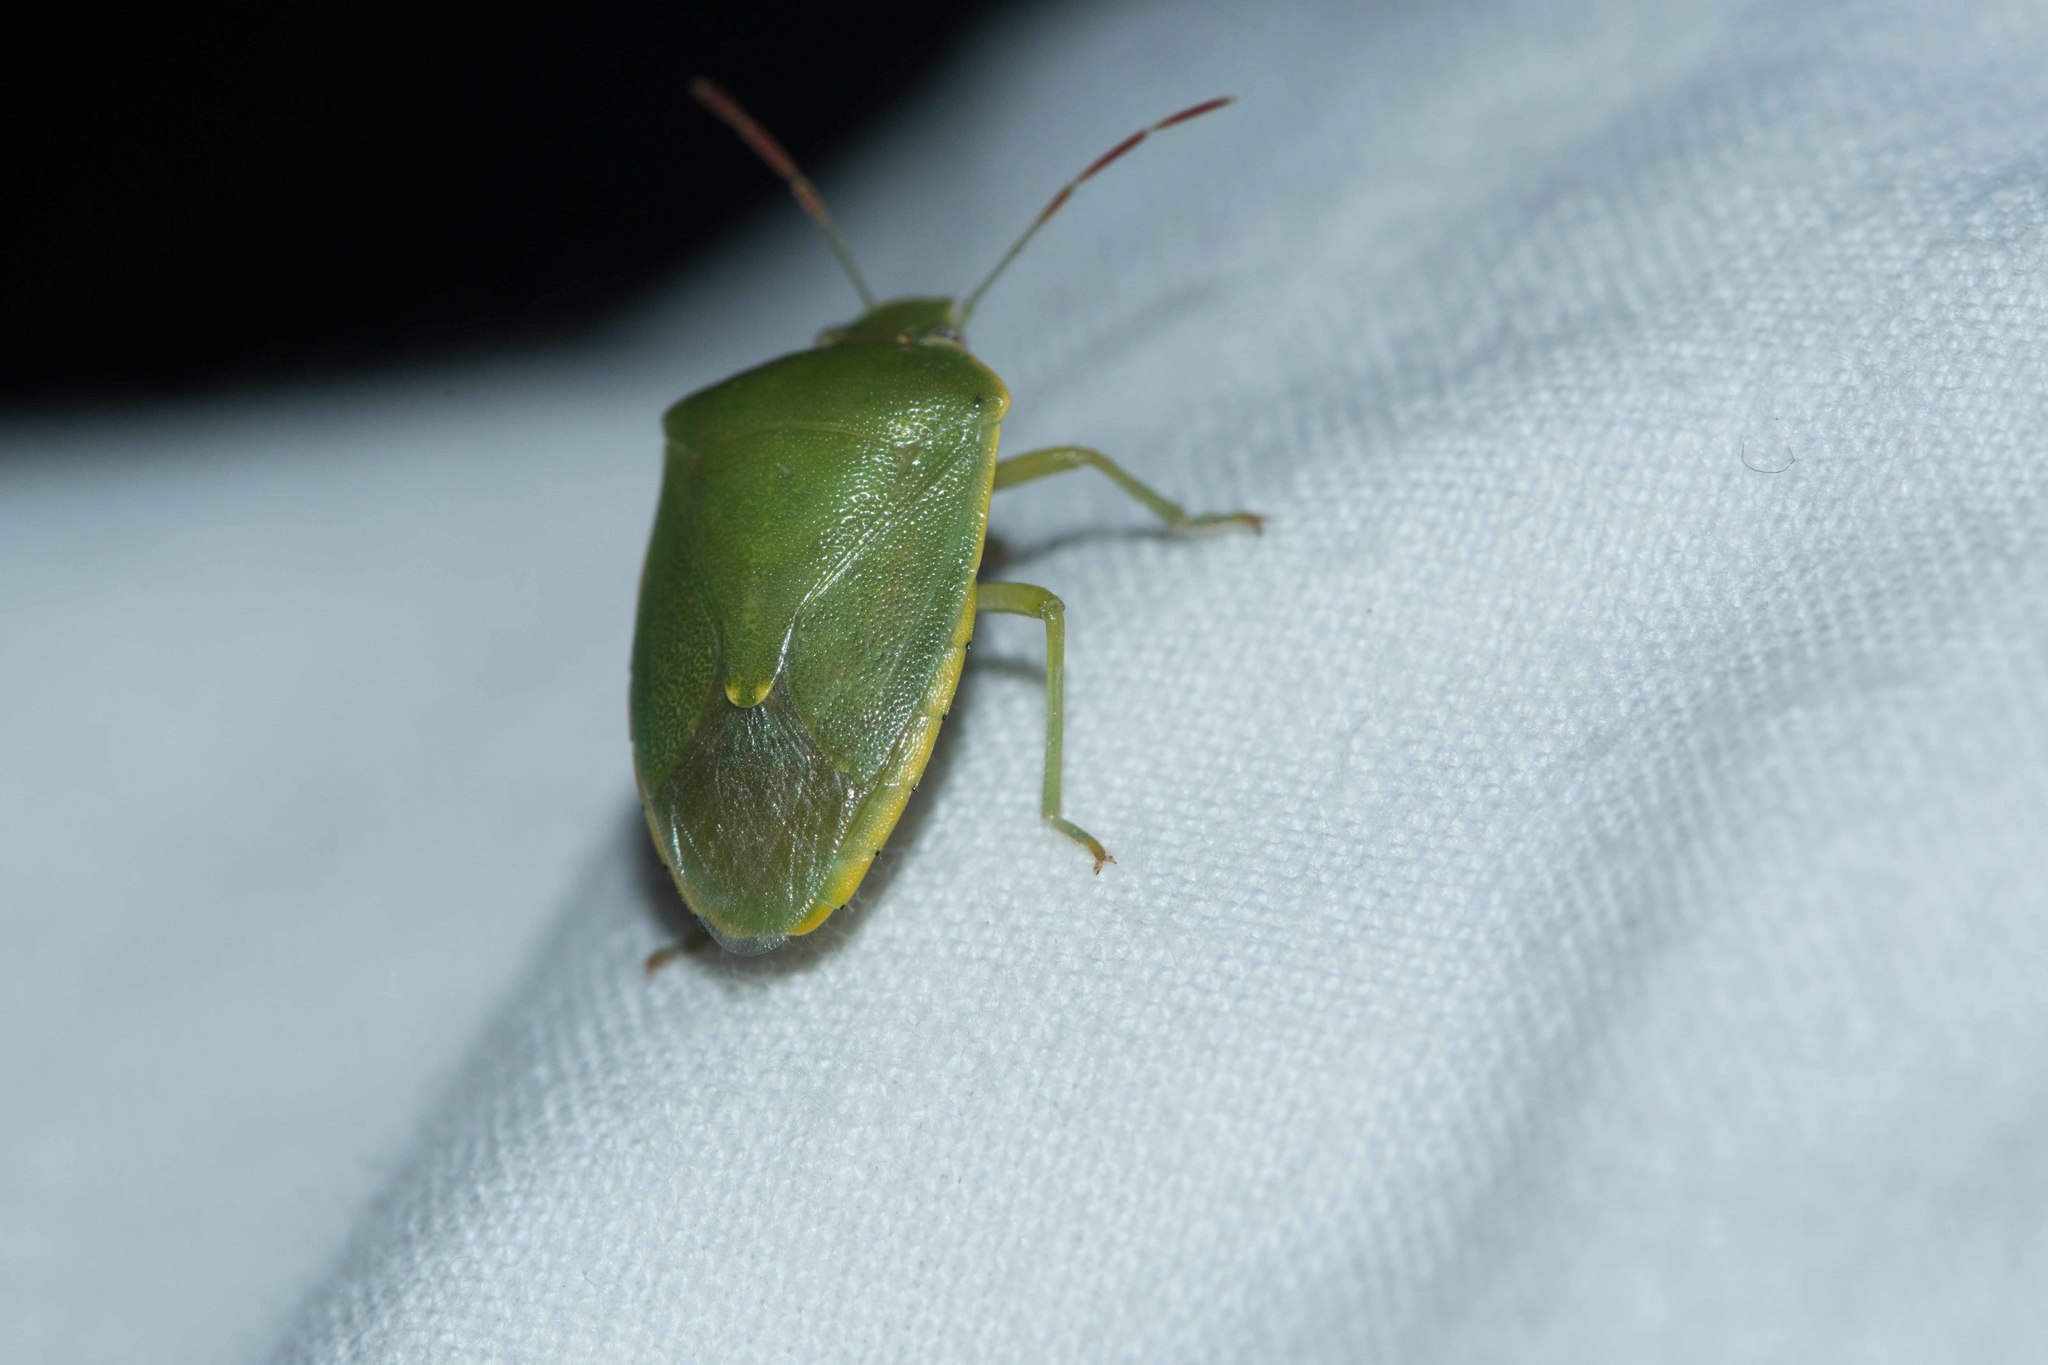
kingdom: Animalia
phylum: Arthropoda
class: Insecta
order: Hemiptera
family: Pentatomidae
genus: Acrosternum
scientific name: Acrosternum heegeri
